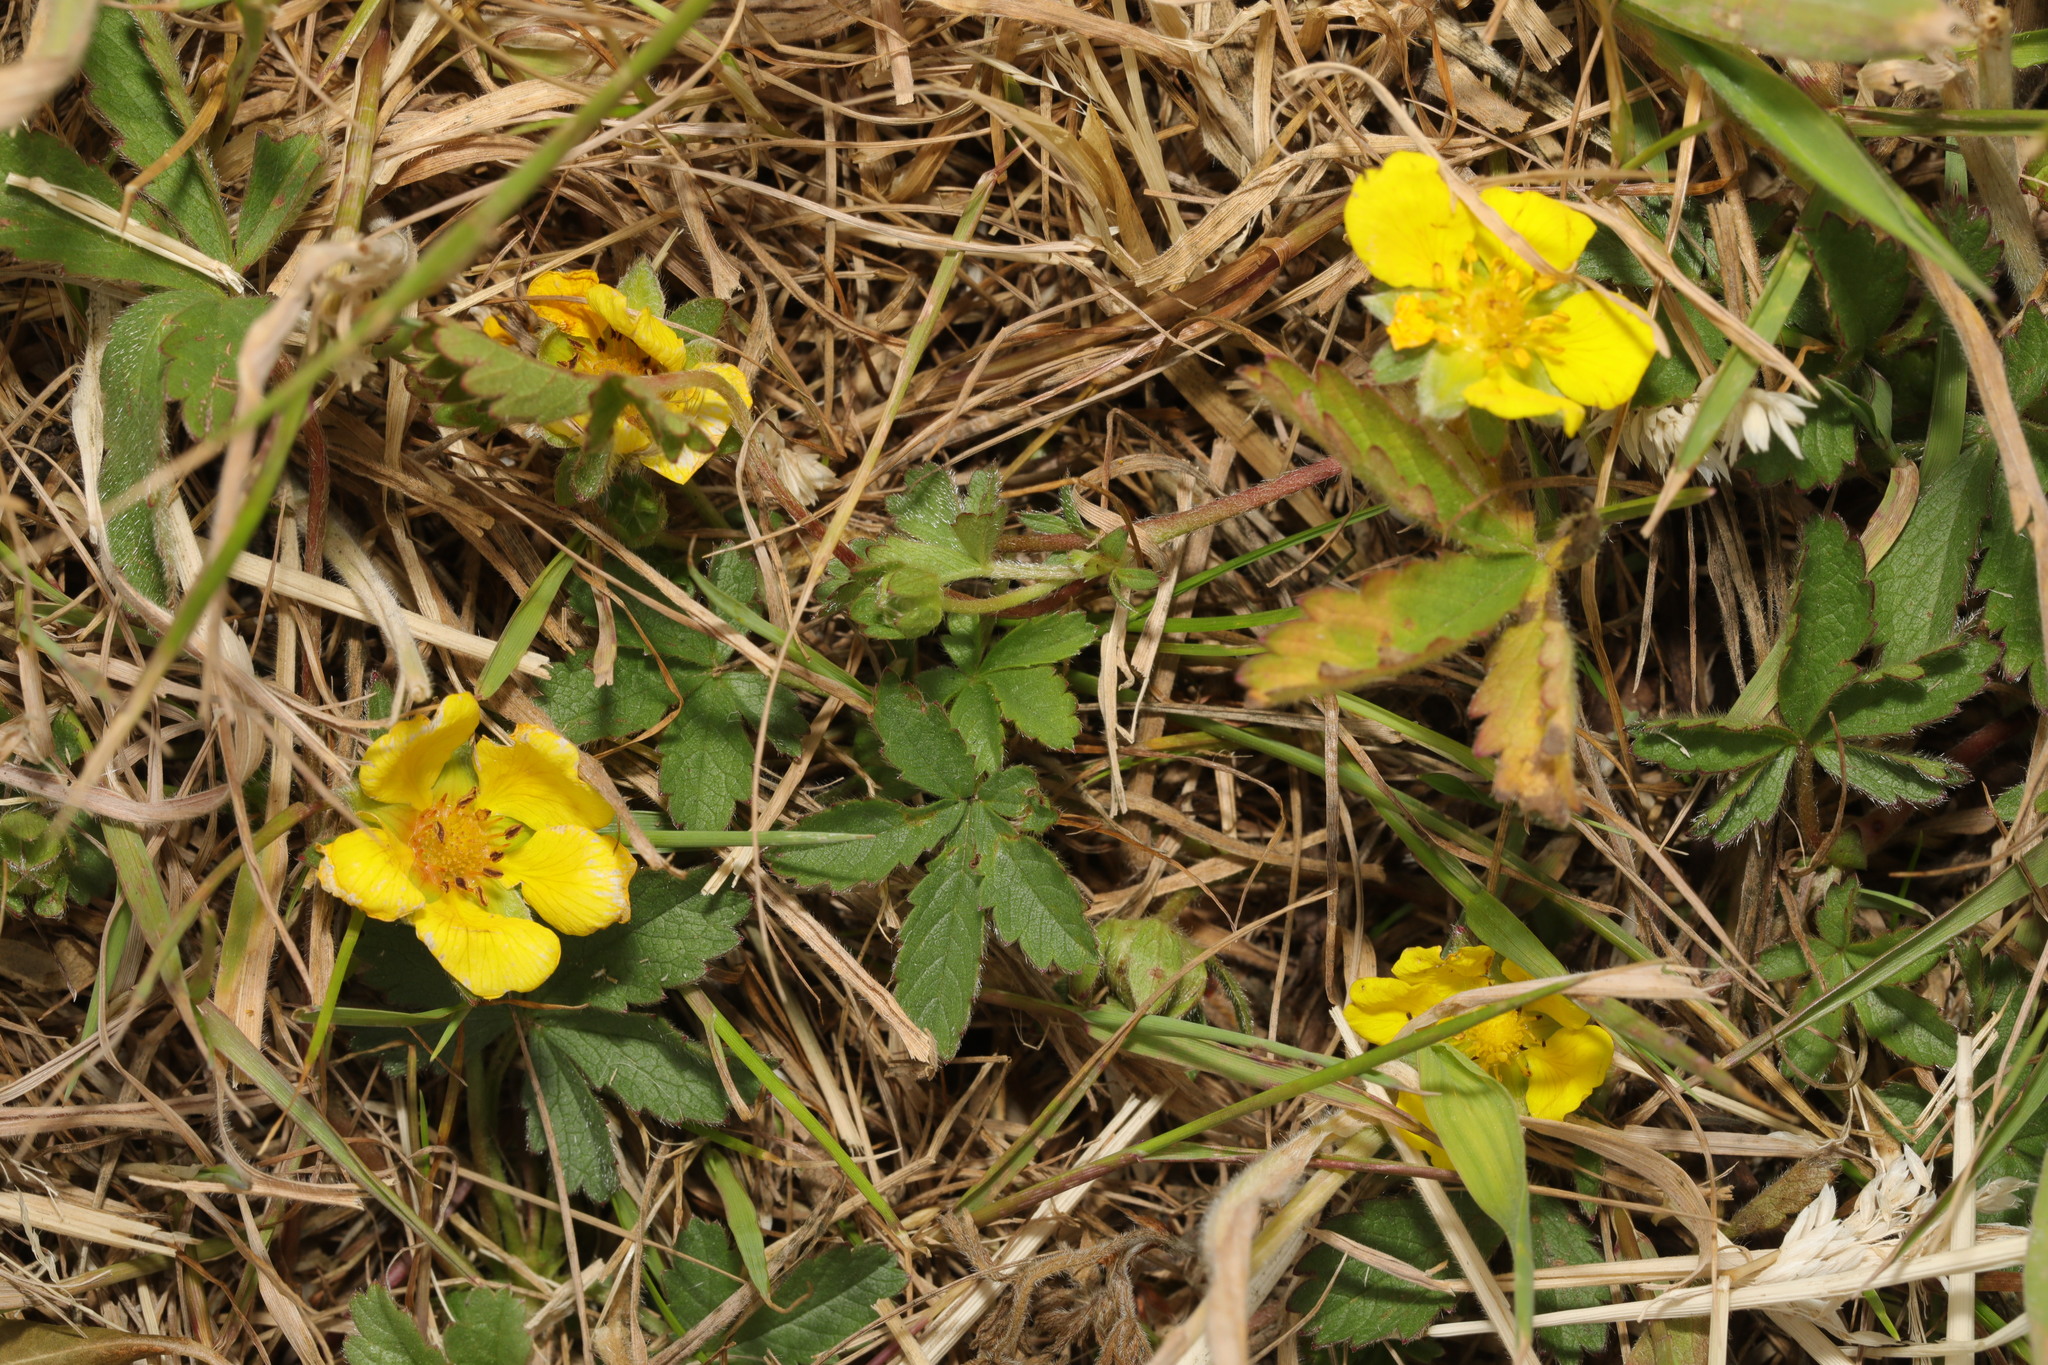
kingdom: Plantae
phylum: Tracheophyta
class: Magnoliopsida
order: Rosales
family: Rosaceae
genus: Potentilla
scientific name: Potentilla reptans
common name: Creeping cinquefoil
